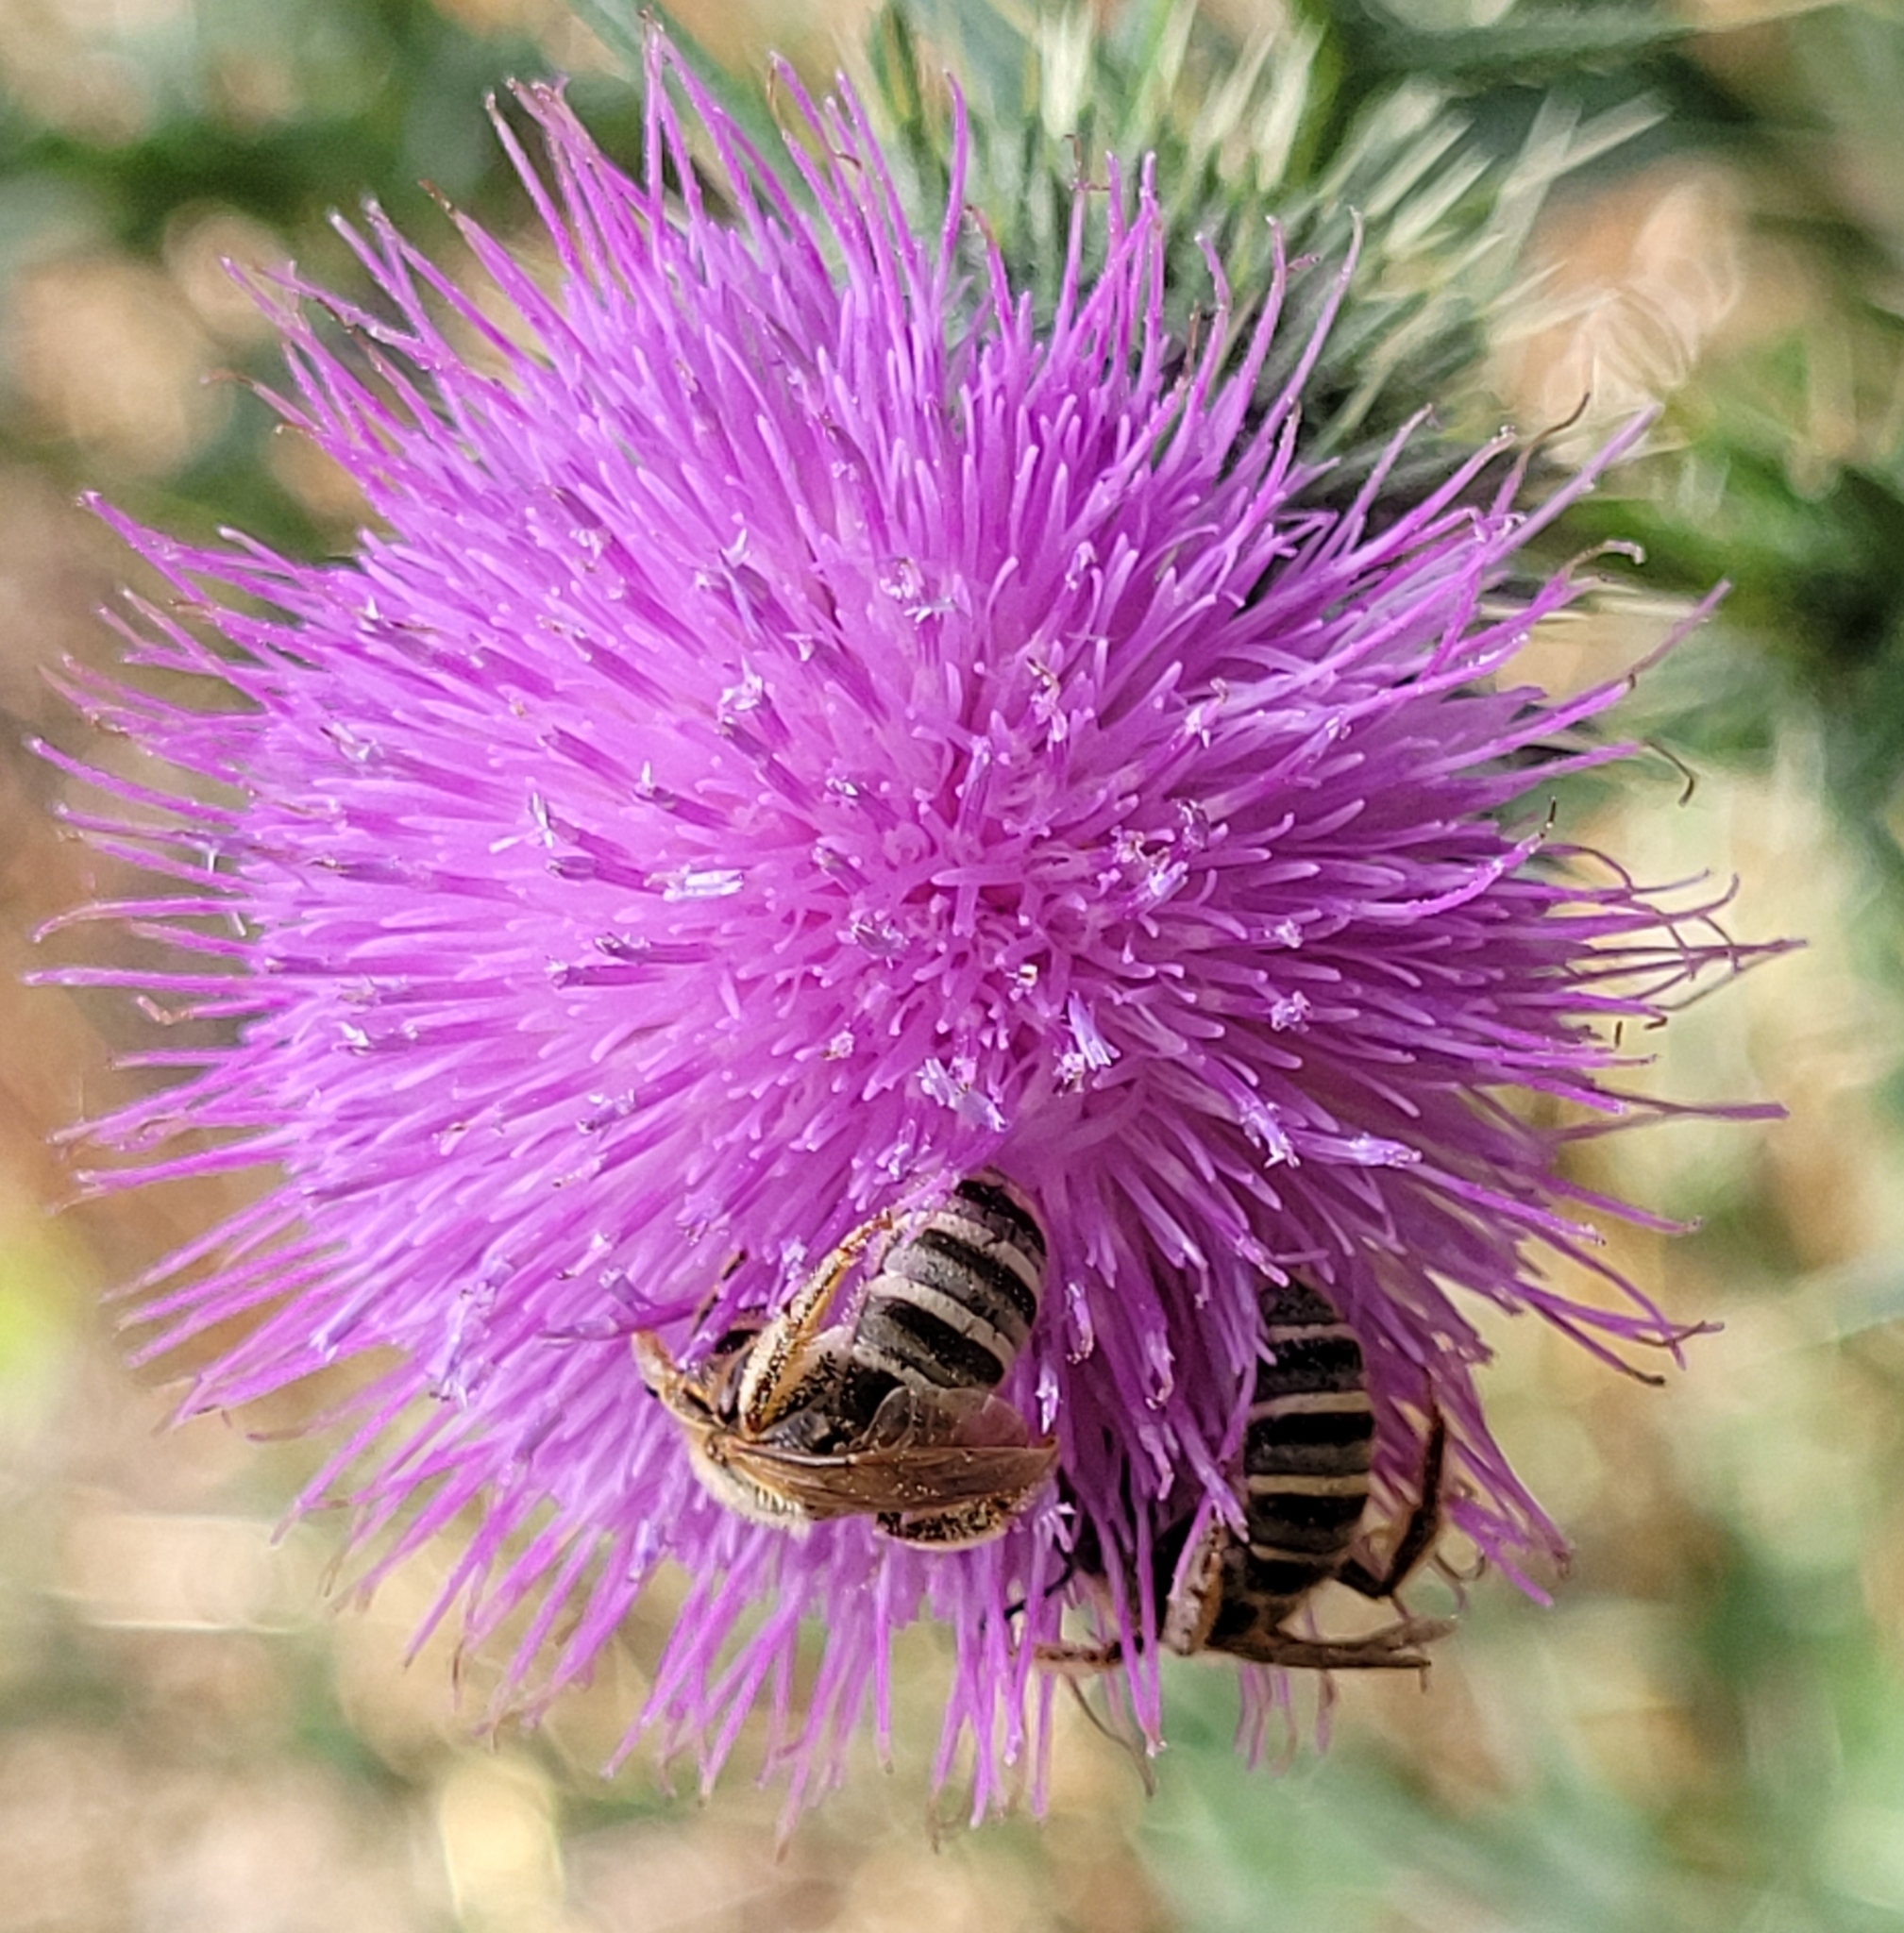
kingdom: Animalia
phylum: Arthropoda
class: Insecta
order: Hymenoptera
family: Halictidae
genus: Halictus
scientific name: Halictus scabiosae
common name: Great banded furrow bee
